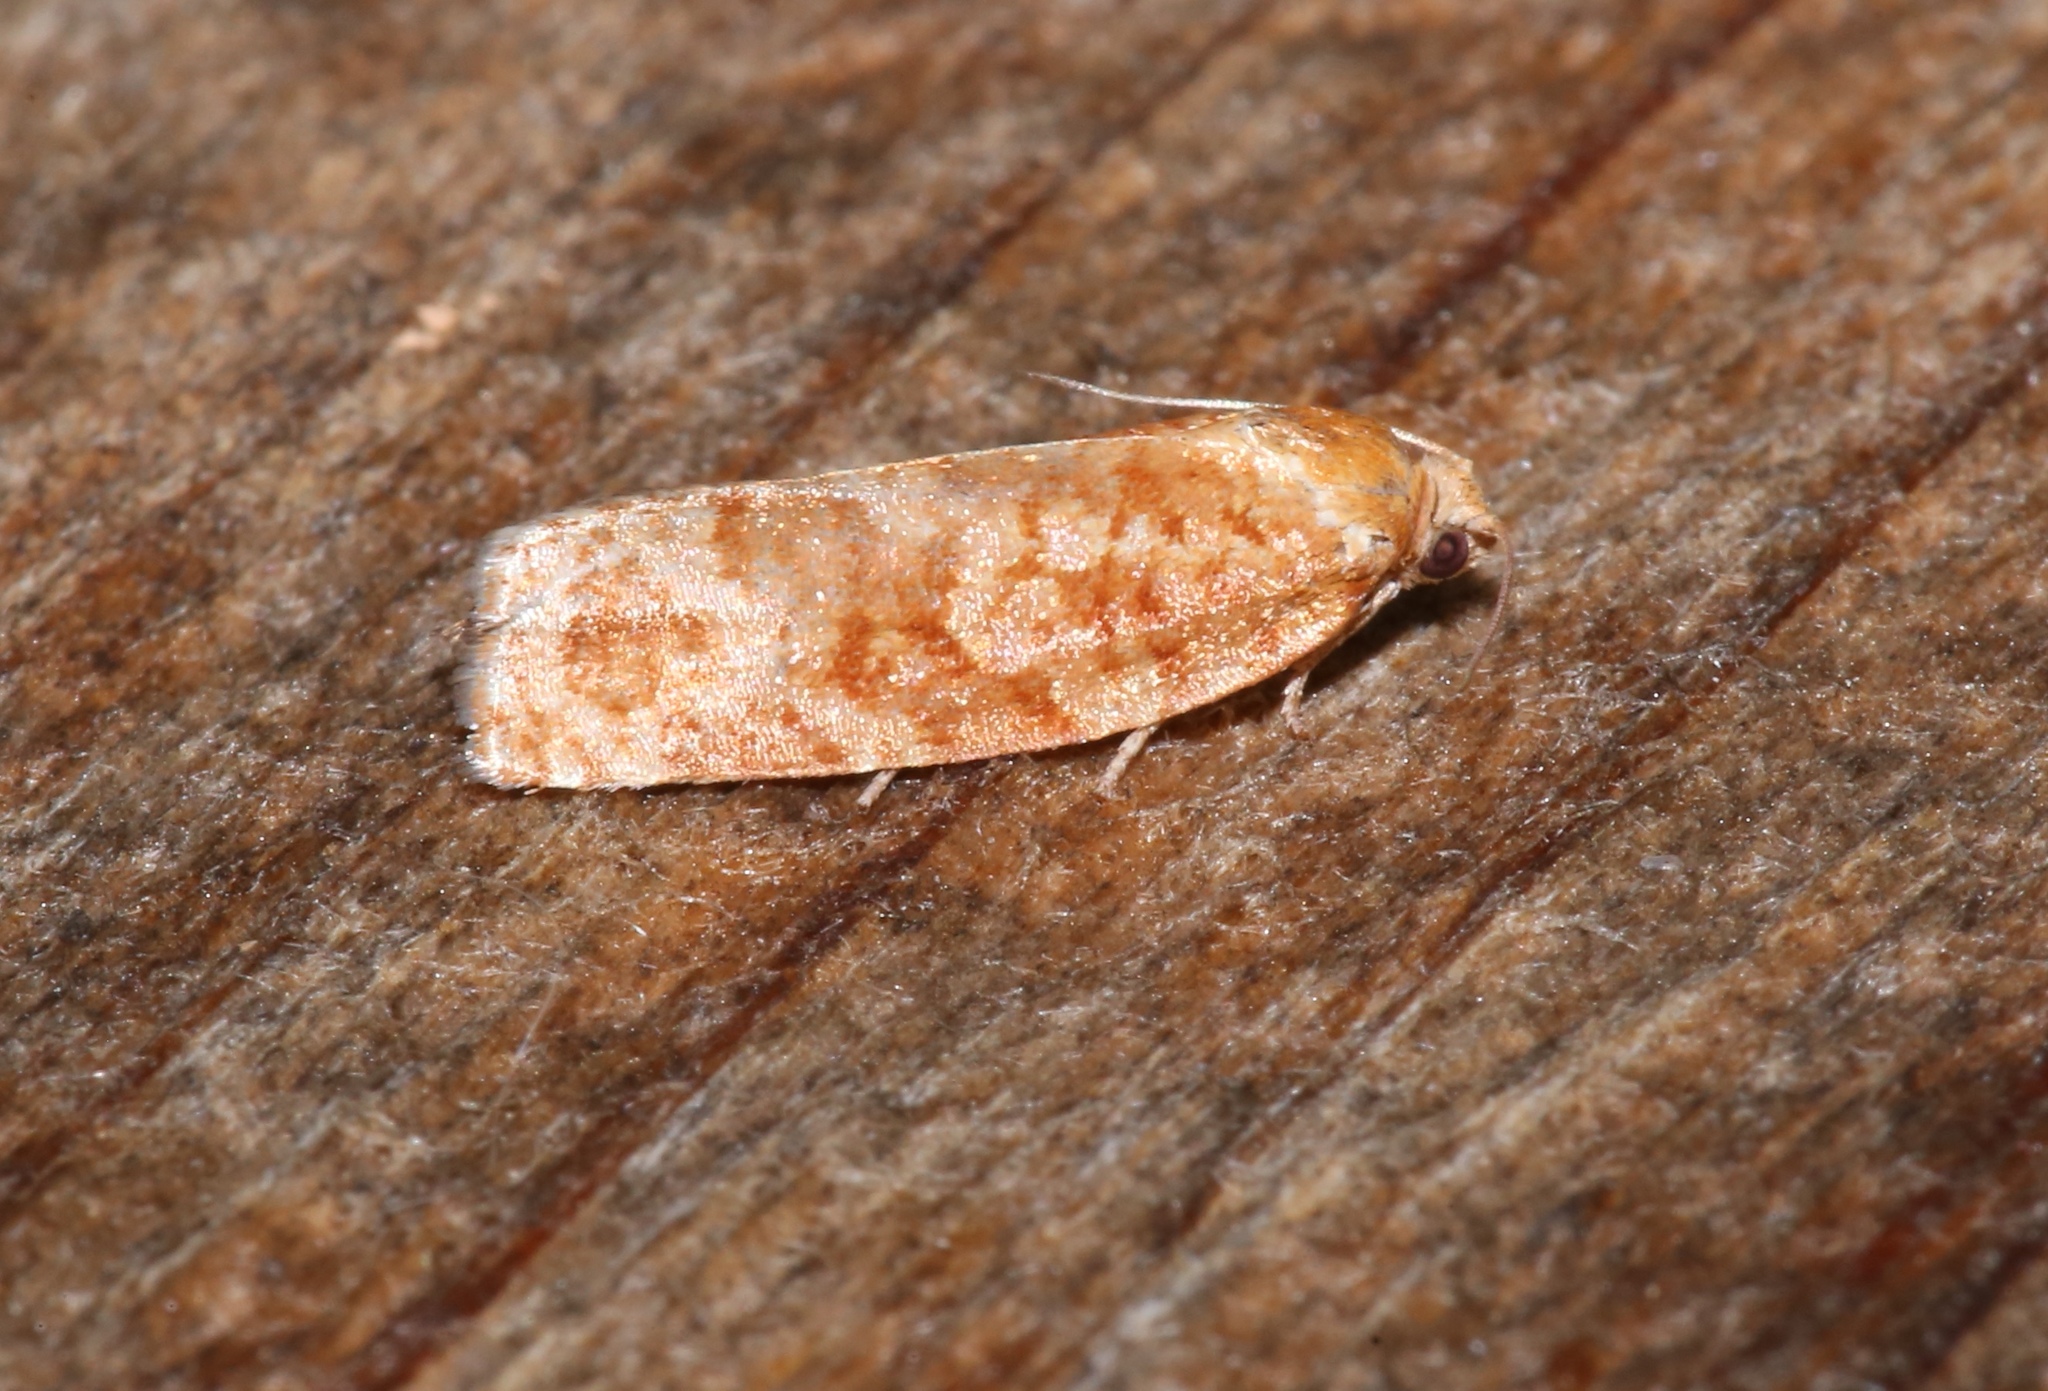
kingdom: Animalia
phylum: Arthropoda
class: Insecta
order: Lepidoptera
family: Tortricidae
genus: Choristoneura
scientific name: Choristoneura pinus
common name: Jack pine budworm
